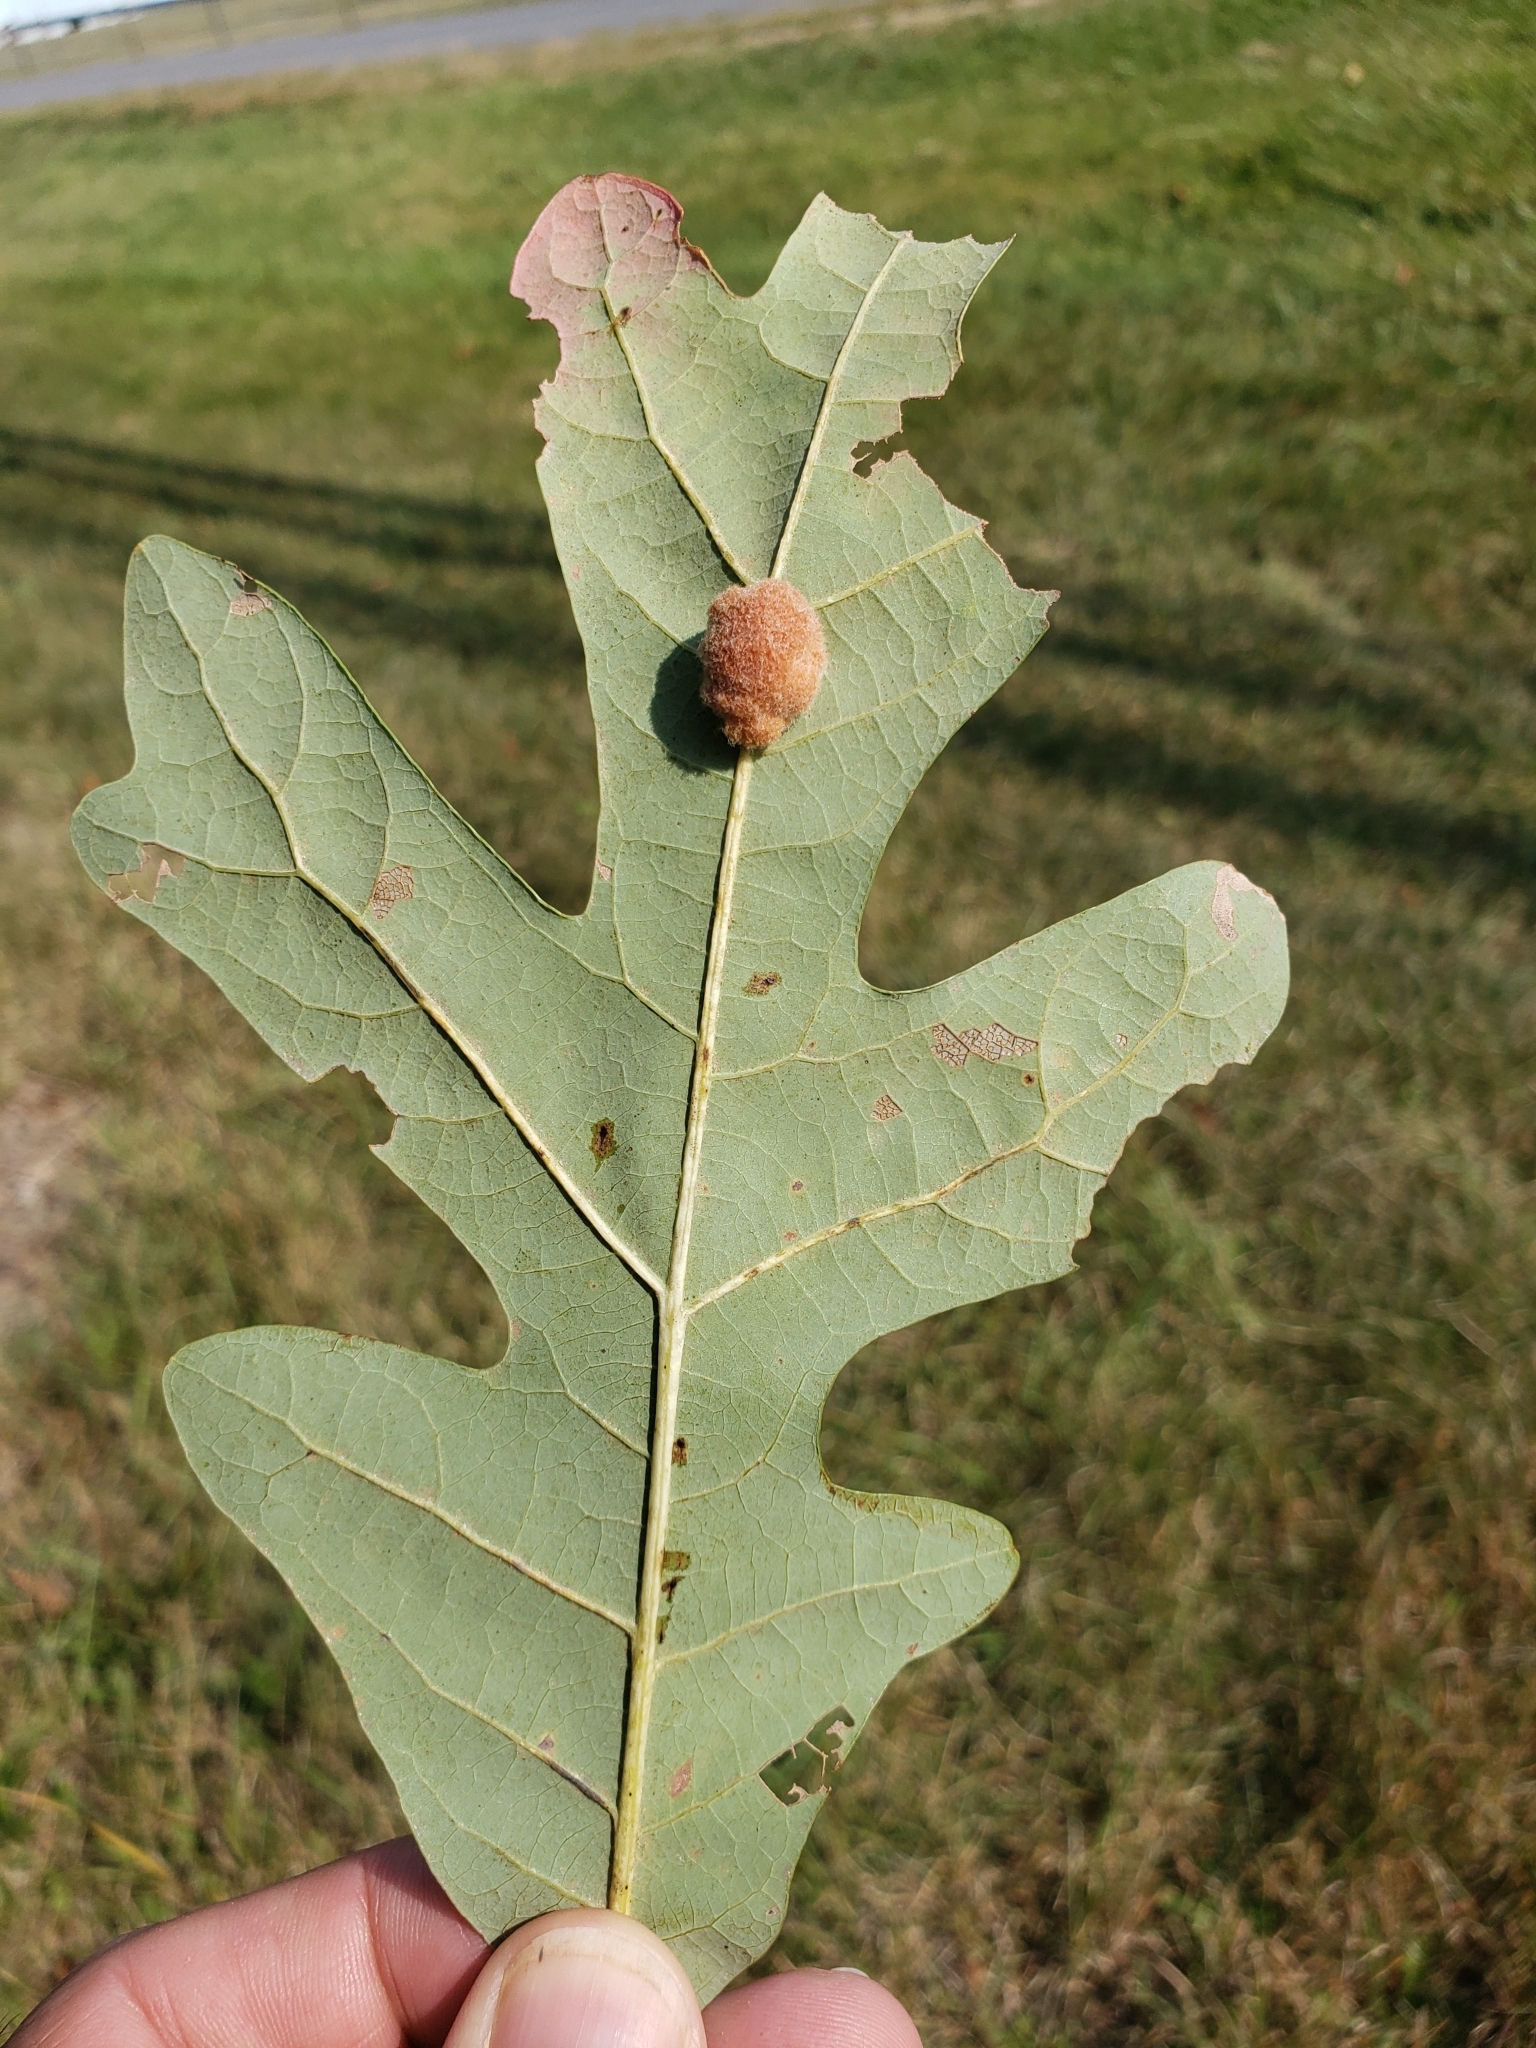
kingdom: Animalia
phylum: Arthropoda
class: Insecta
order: Hymenoptera
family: Cynipidae
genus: Andricus
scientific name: Andricus quercusflocci
